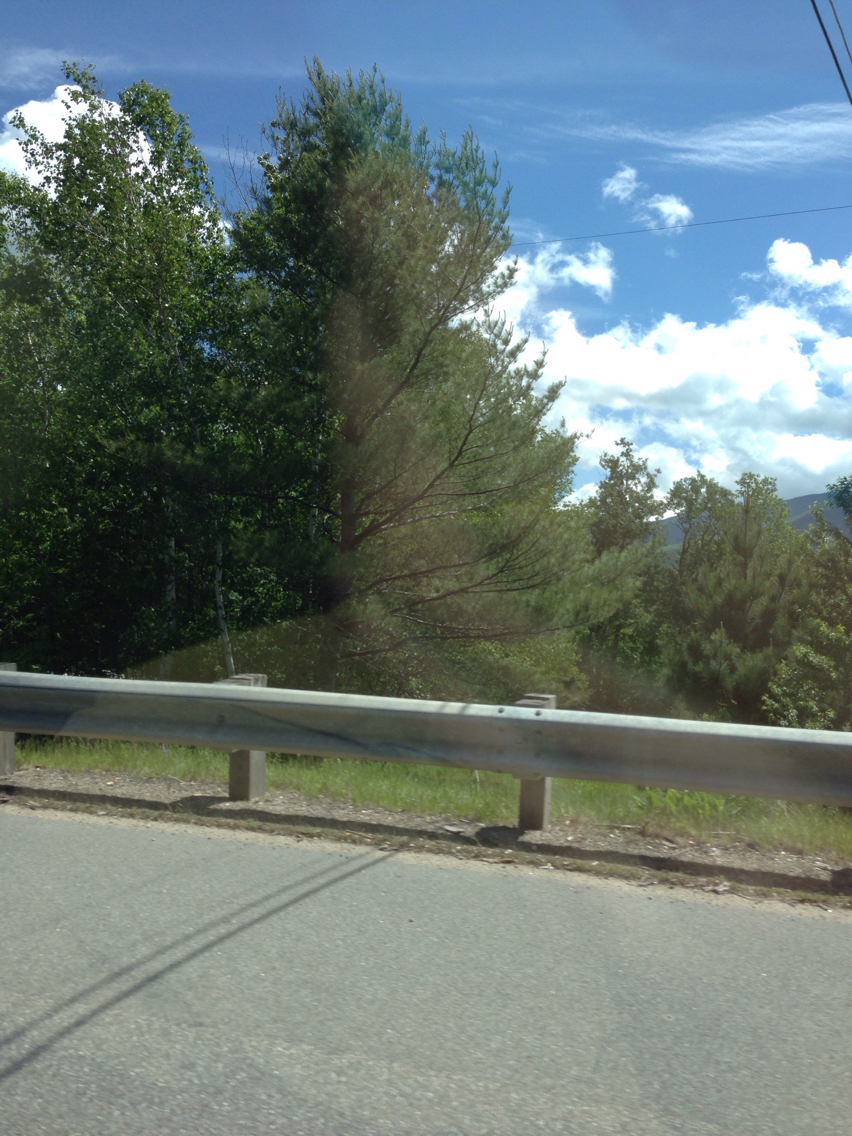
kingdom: Plantae
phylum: Tracheophyta
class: Pinopsida
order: Pinales
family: Pinaceae
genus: Pinus
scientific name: Pinus strobus
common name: Weymouth pine
